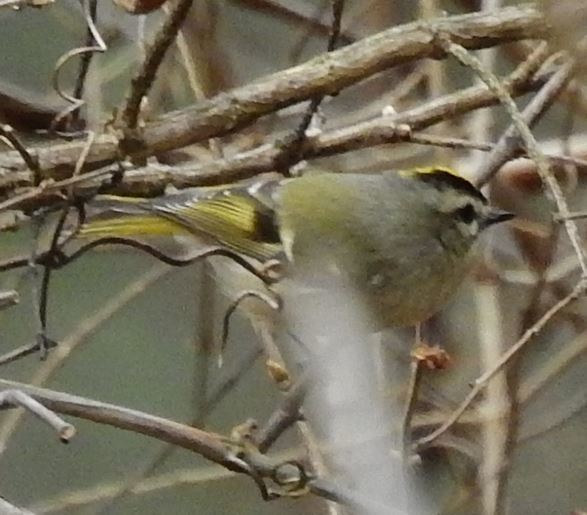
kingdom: Animalia
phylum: Chordata
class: Aves
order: Passeriformes
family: Regulidae
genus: Regulus
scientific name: Regulus satrapa
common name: Golden-crowned kinglet
